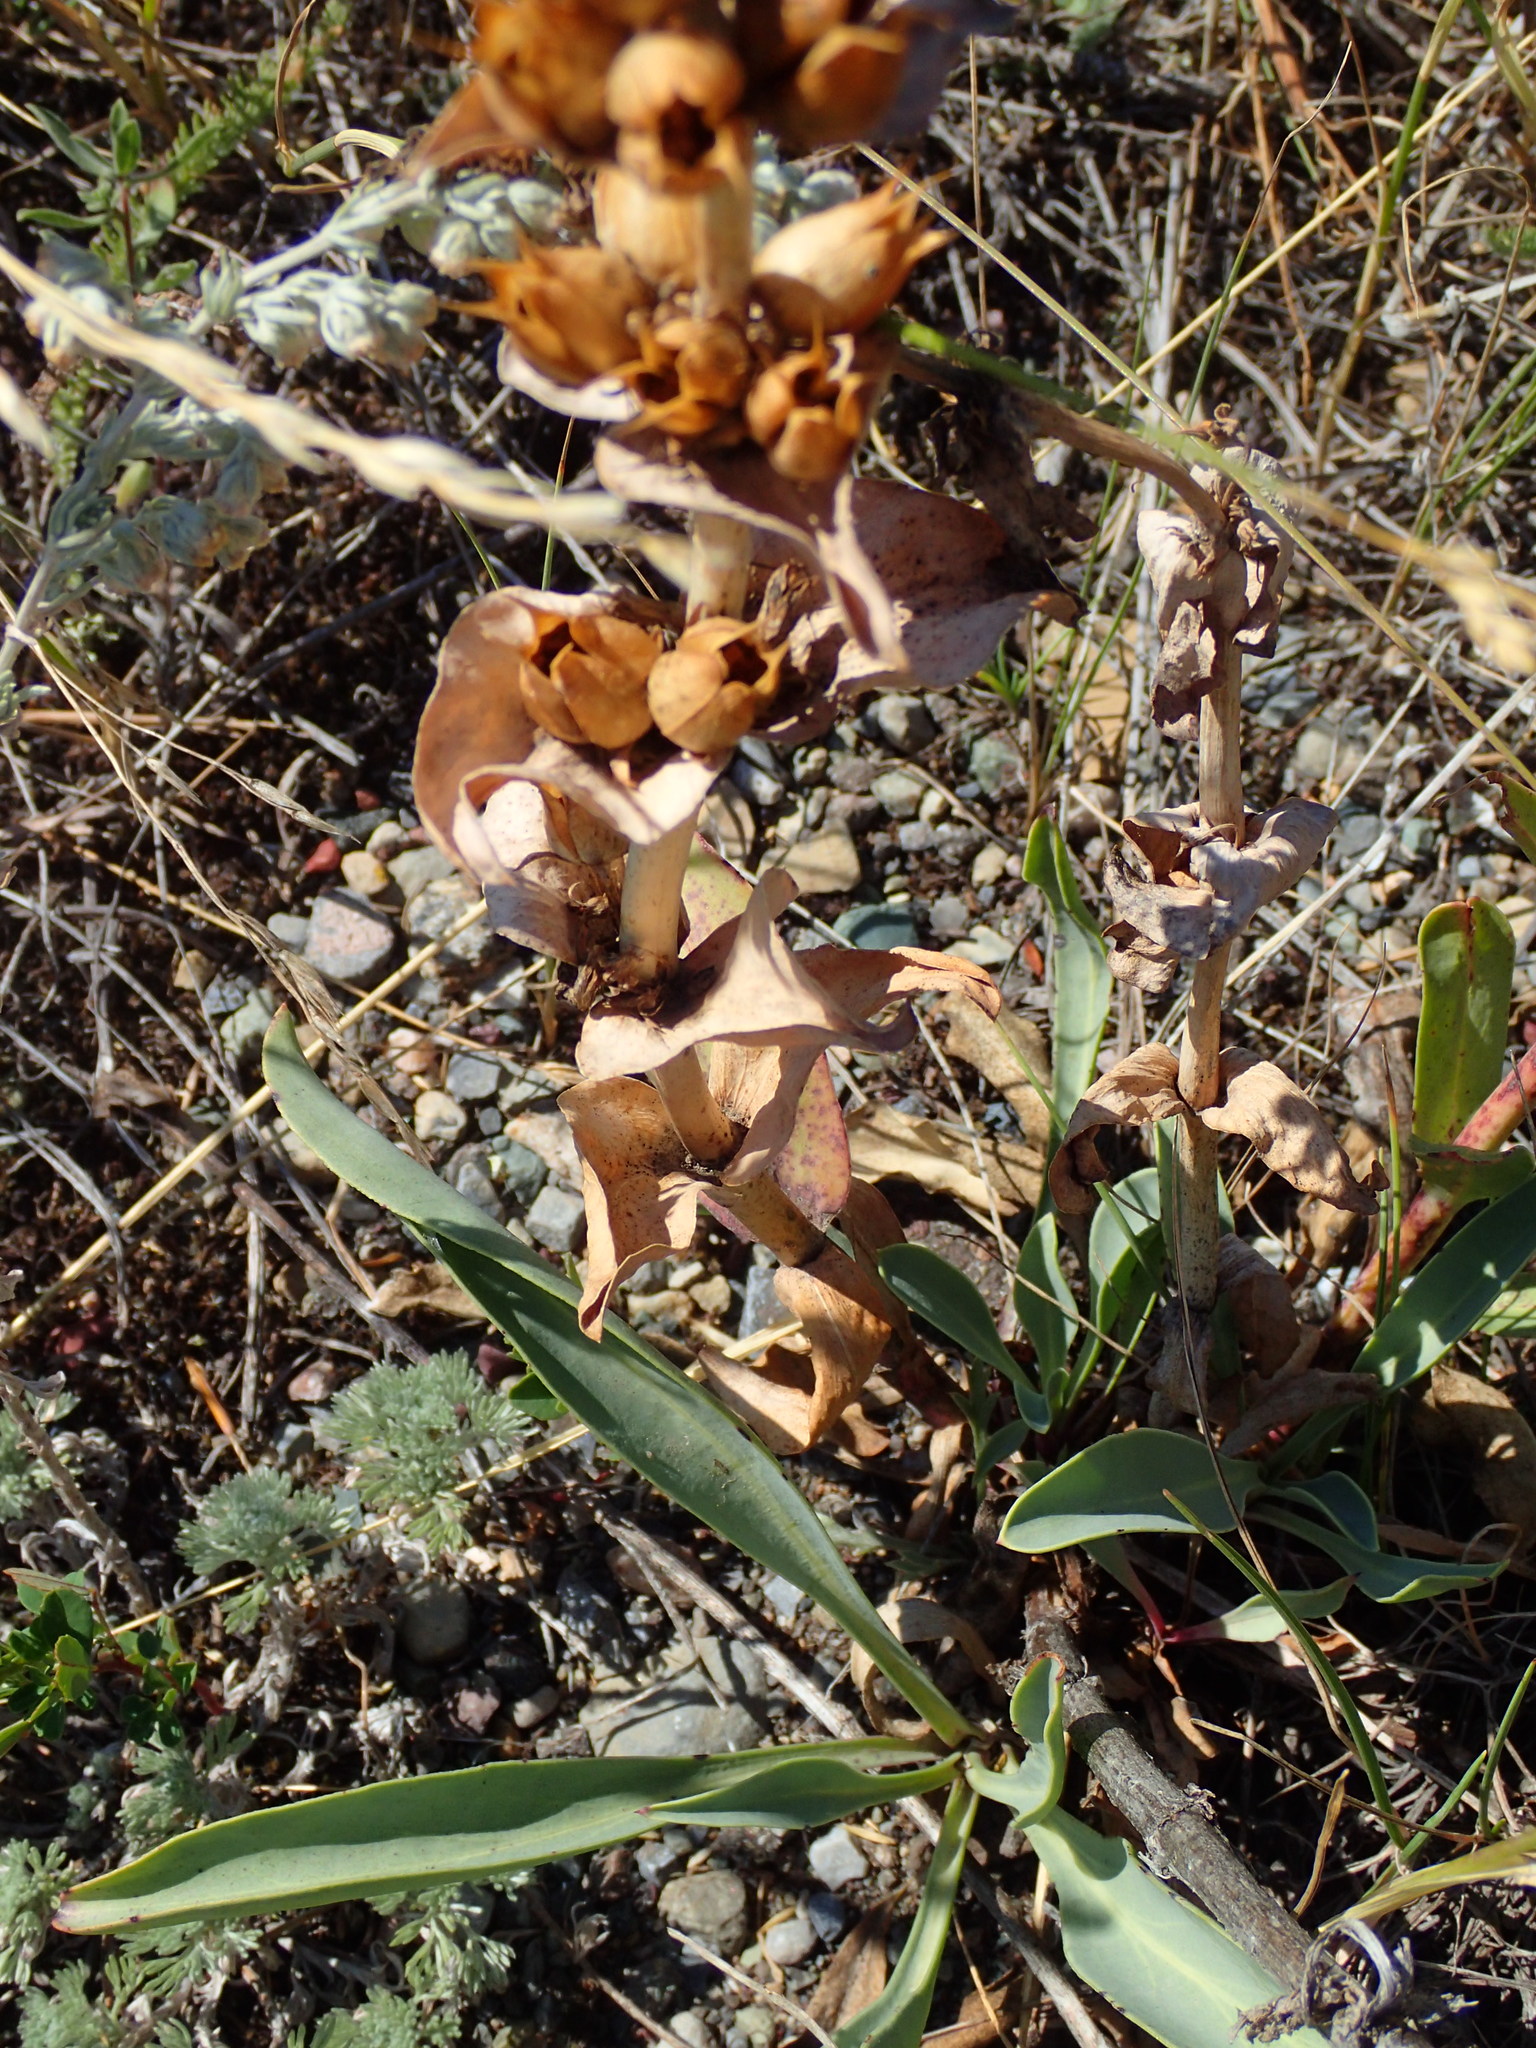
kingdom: Plantae
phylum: Tracheophyta
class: Magnoliopsida
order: Lamiales
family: Plantaginaceae
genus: Penstemon
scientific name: Penstemon nitidus
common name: Shining penstemon
